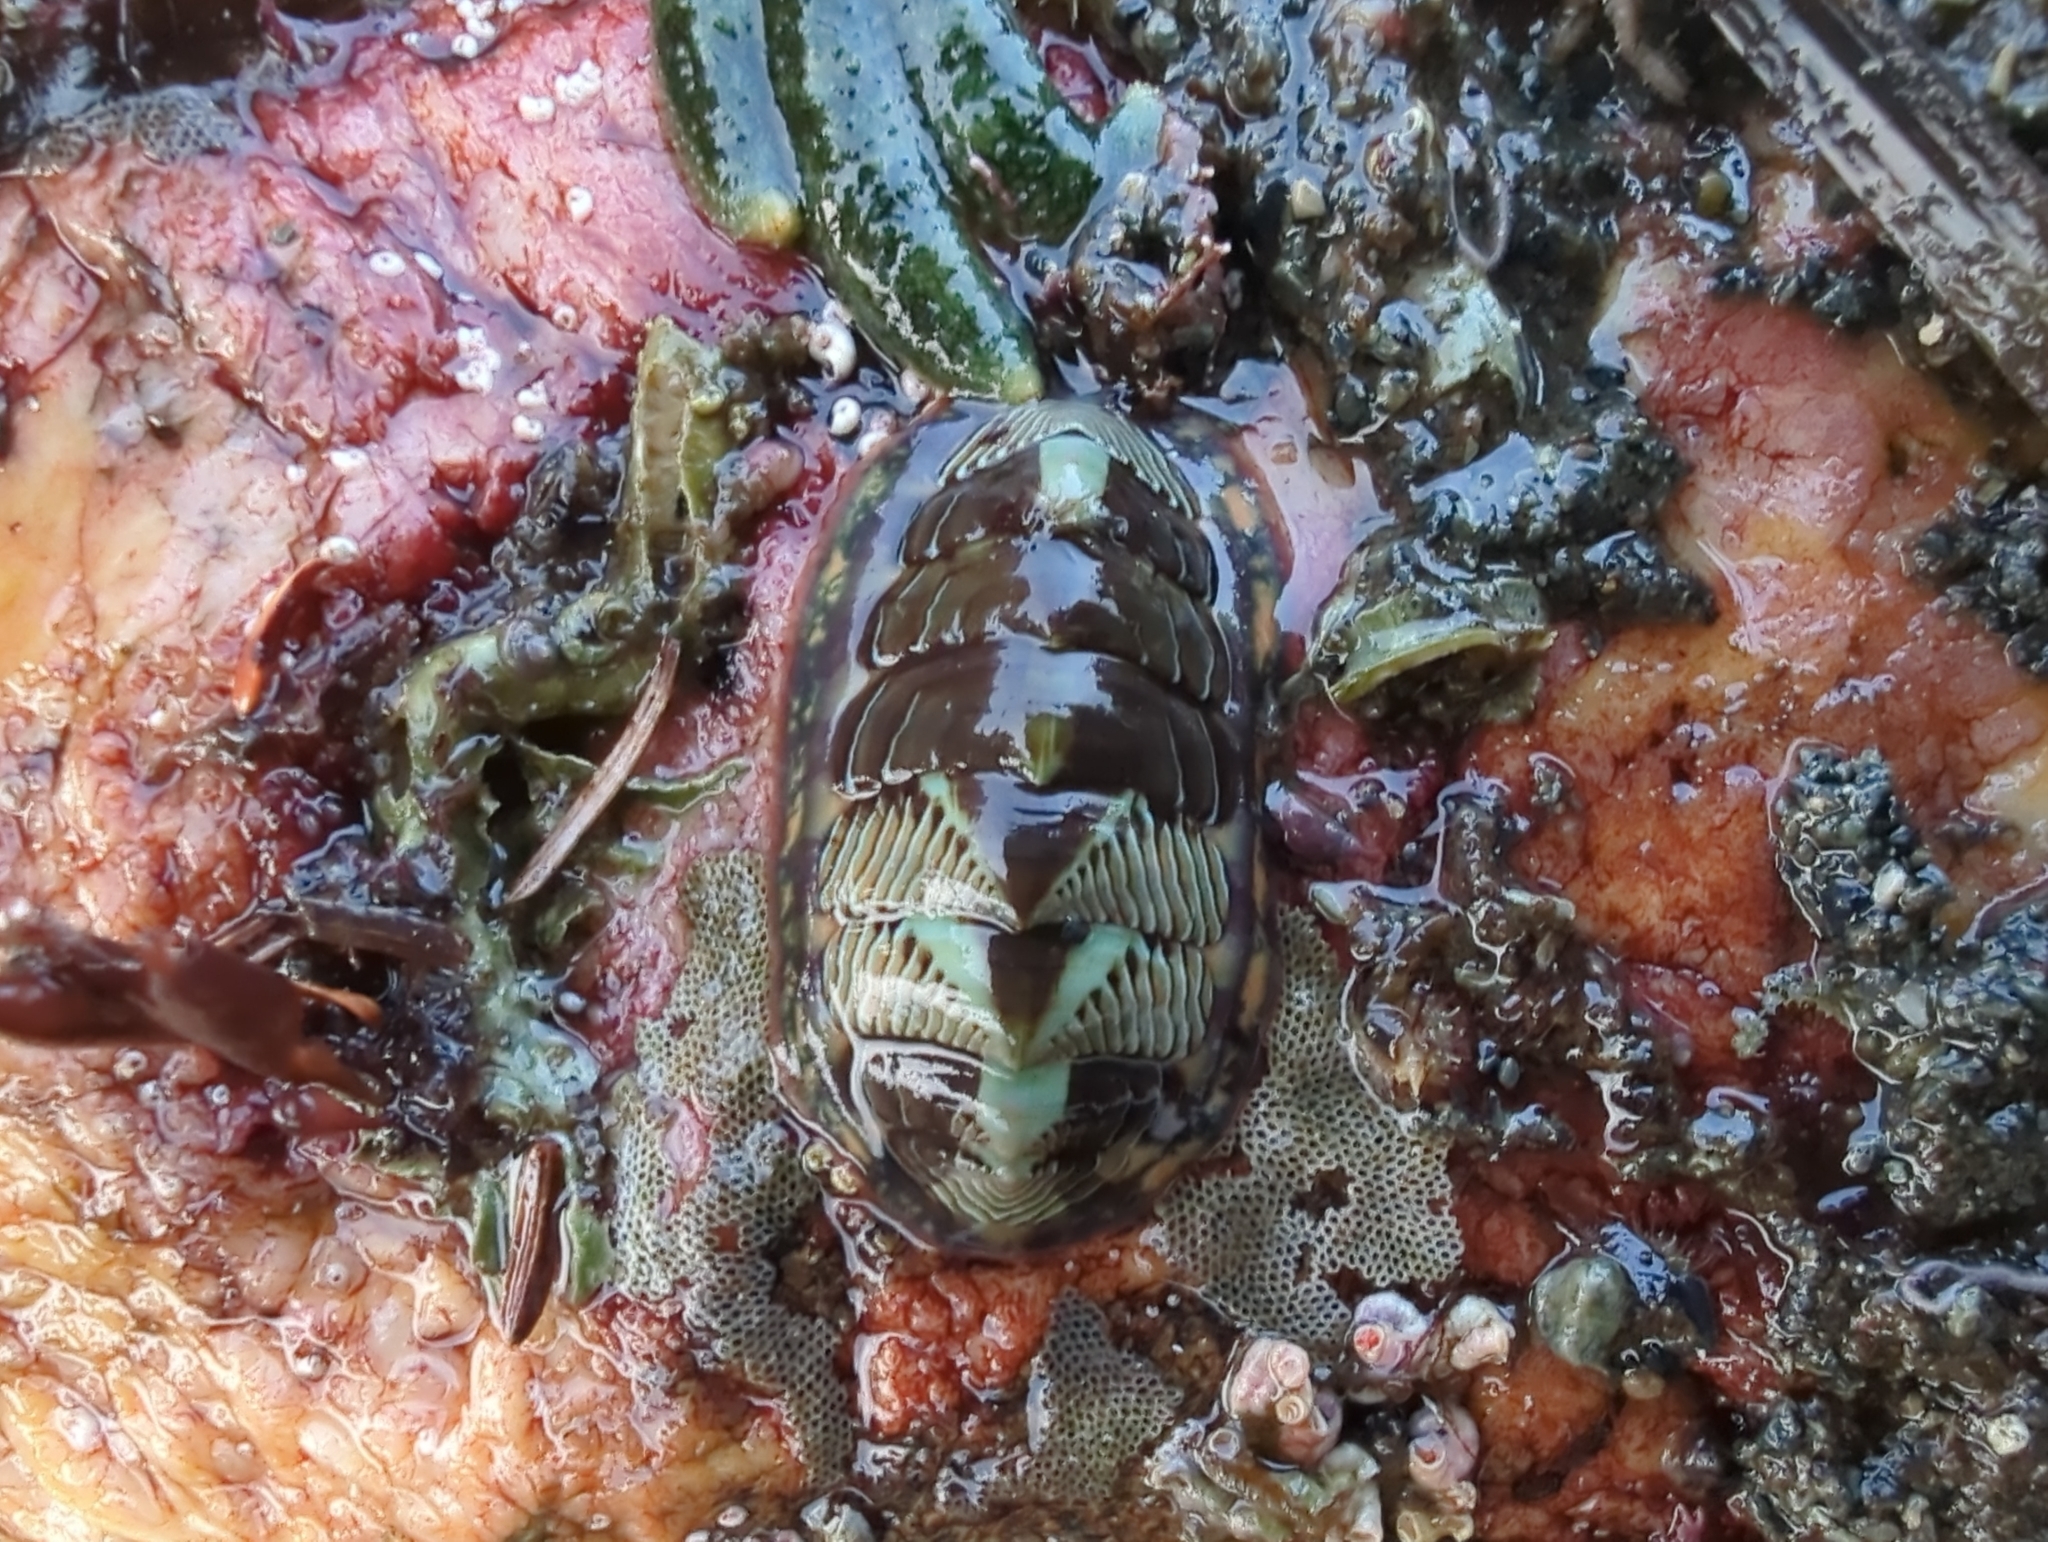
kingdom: Animalia
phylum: Mollusca
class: Polyplacophora
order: Chitonida
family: Tonicellidae
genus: Tonicella
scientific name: Tonicella lineata
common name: Lined chiton
